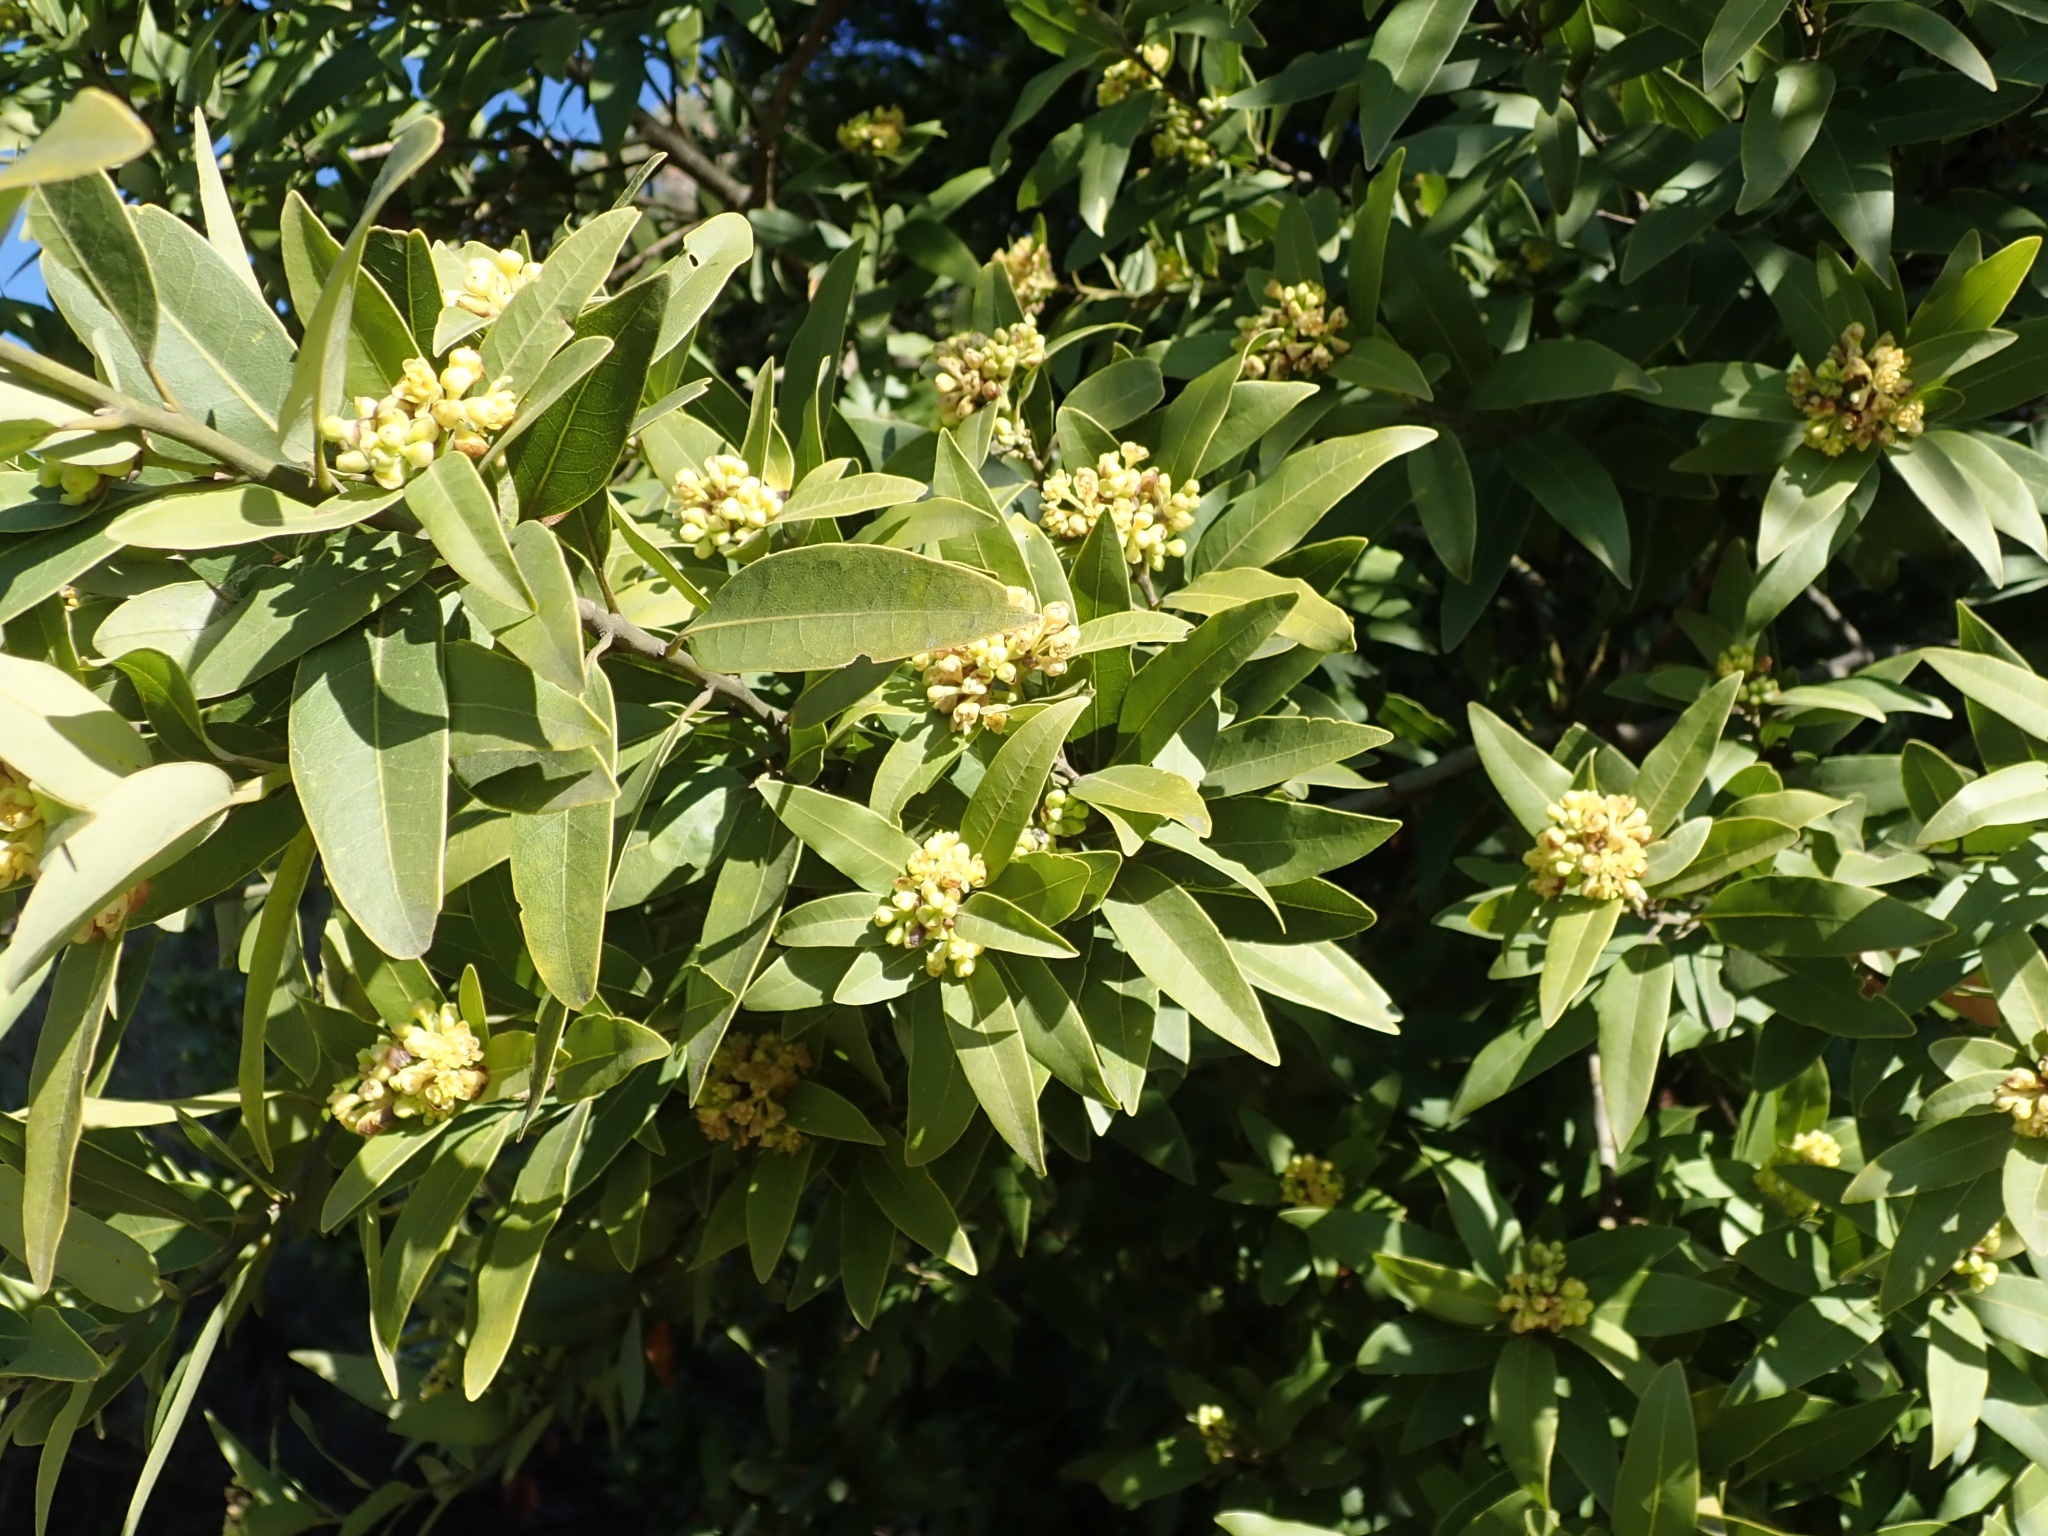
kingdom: Plantae
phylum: Tracheophyta
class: Magnoliopsida
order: Laurales
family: Lauraceae
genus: Umbellularia
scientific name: Umbellularia californica
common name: California bay
